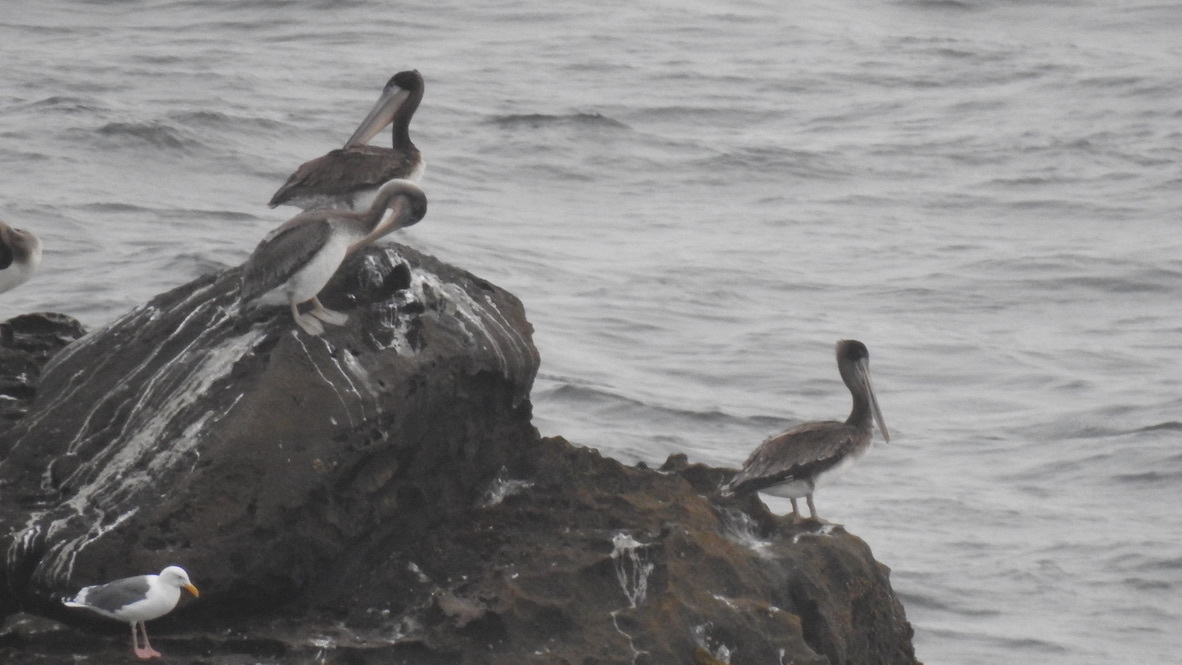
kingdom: Animalia
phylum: Chordata
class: Aves
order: Pelecaniformes
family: Pelecanidae
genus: Pelecanus
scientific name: Pelecanus occidentalis
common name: Brown pelican
